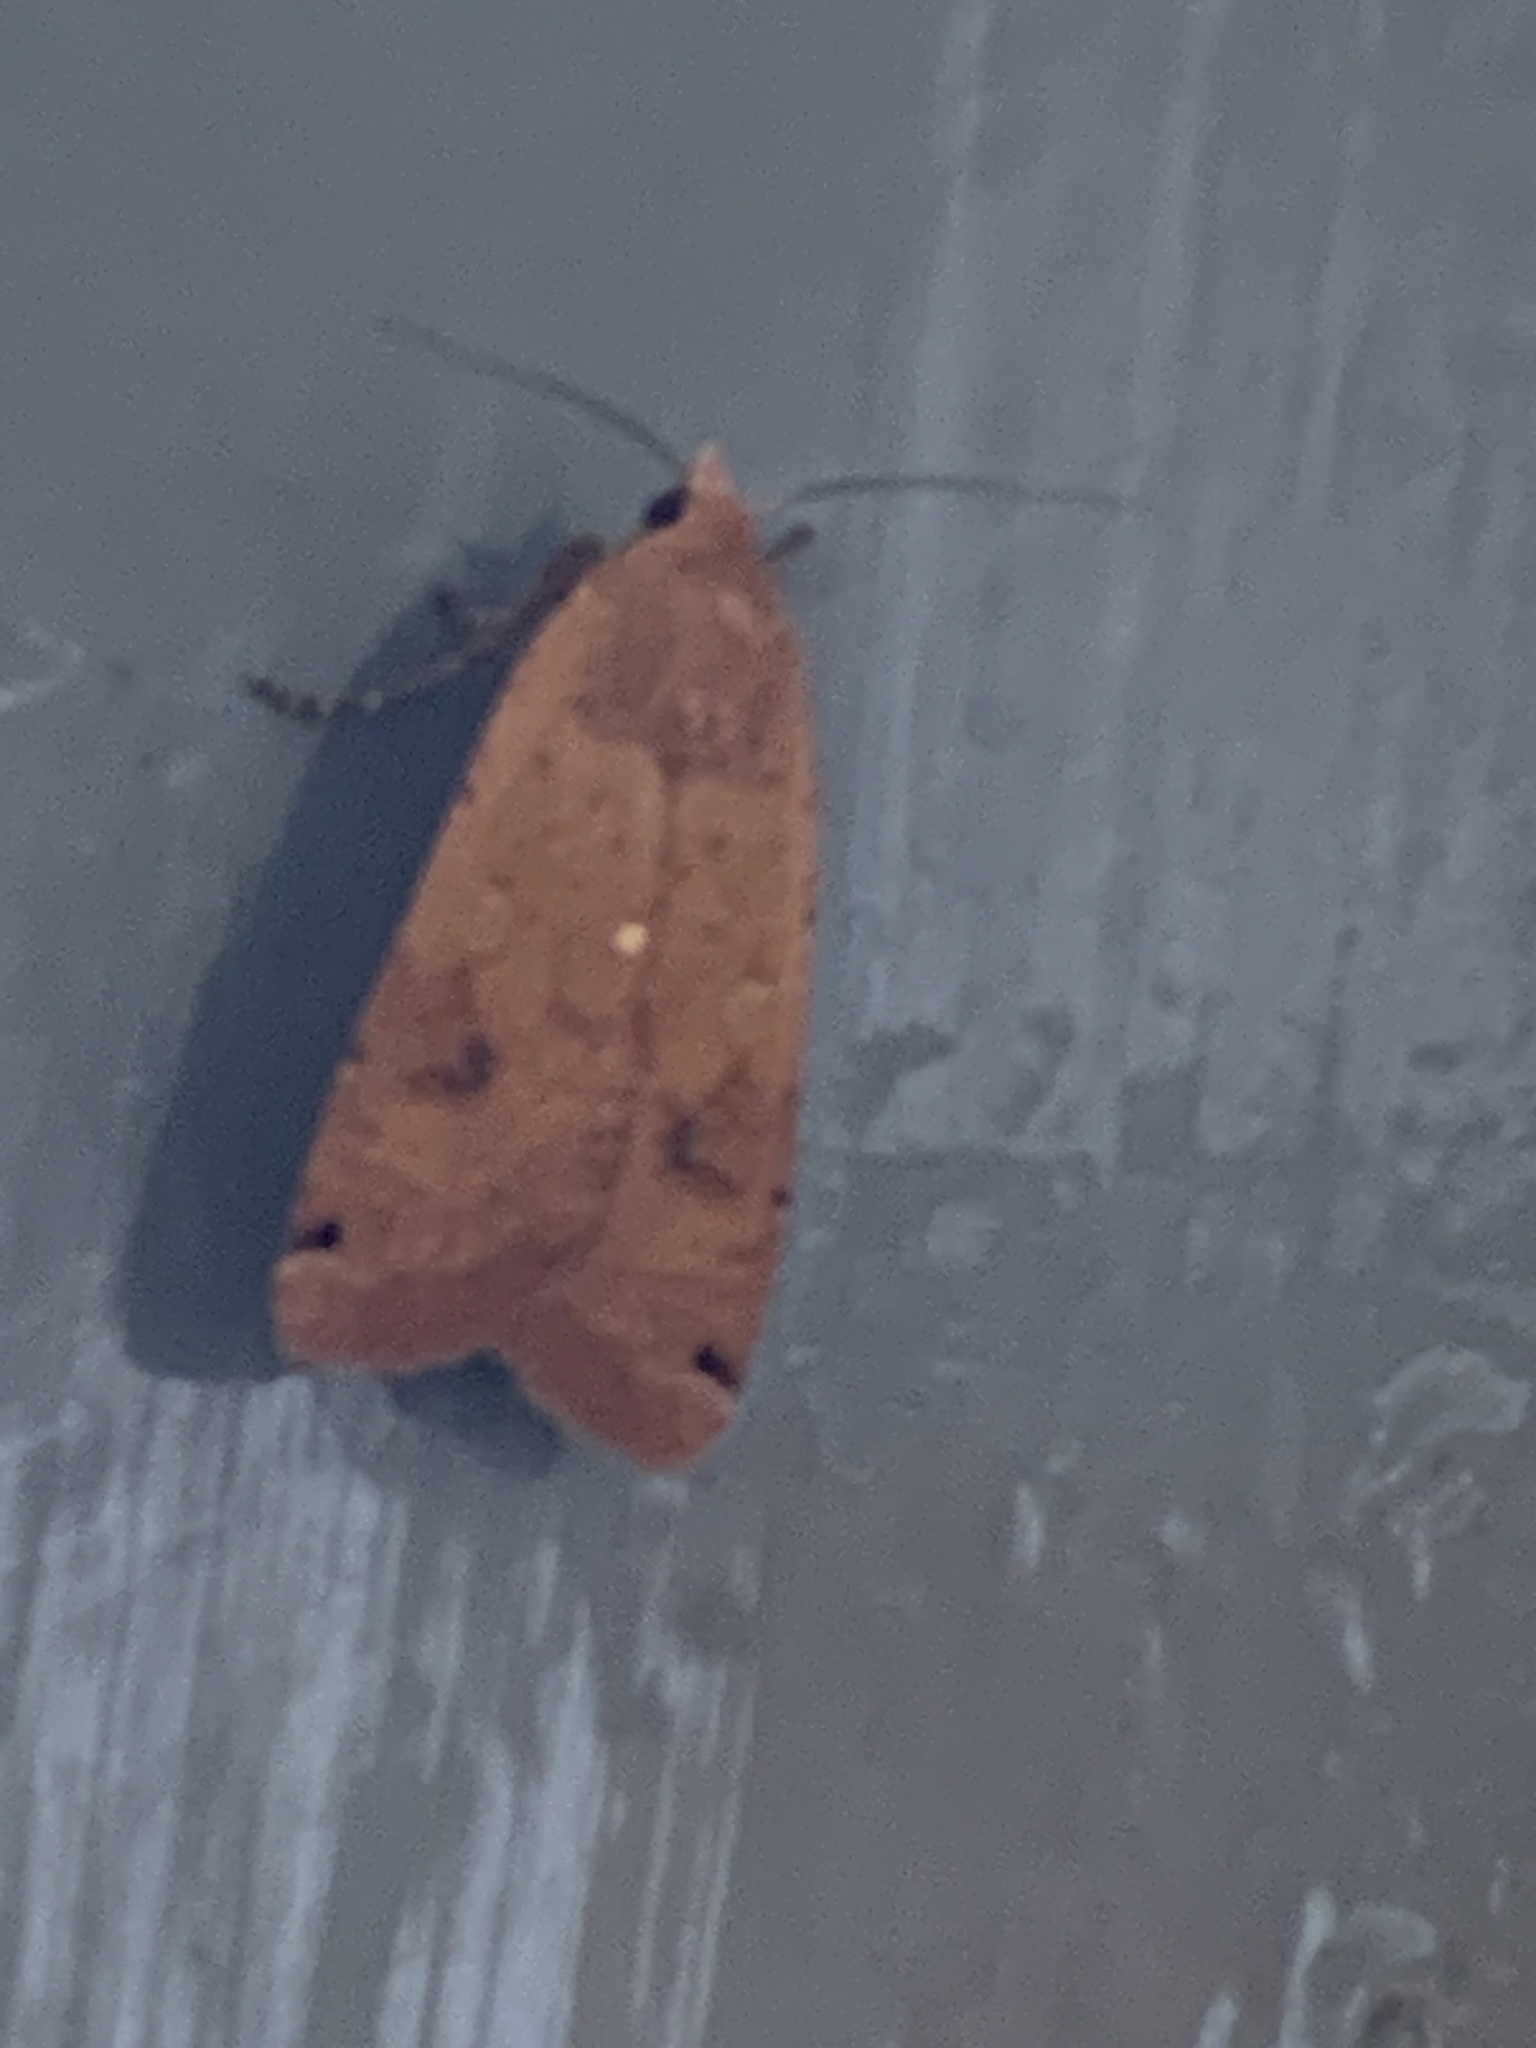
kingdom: Animalia
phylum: Arthropoda
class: Insecta
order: Lepidoptera
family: Noctuidae
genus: Noctua
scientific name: Noctua pronuba
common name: Large yellow underwing
